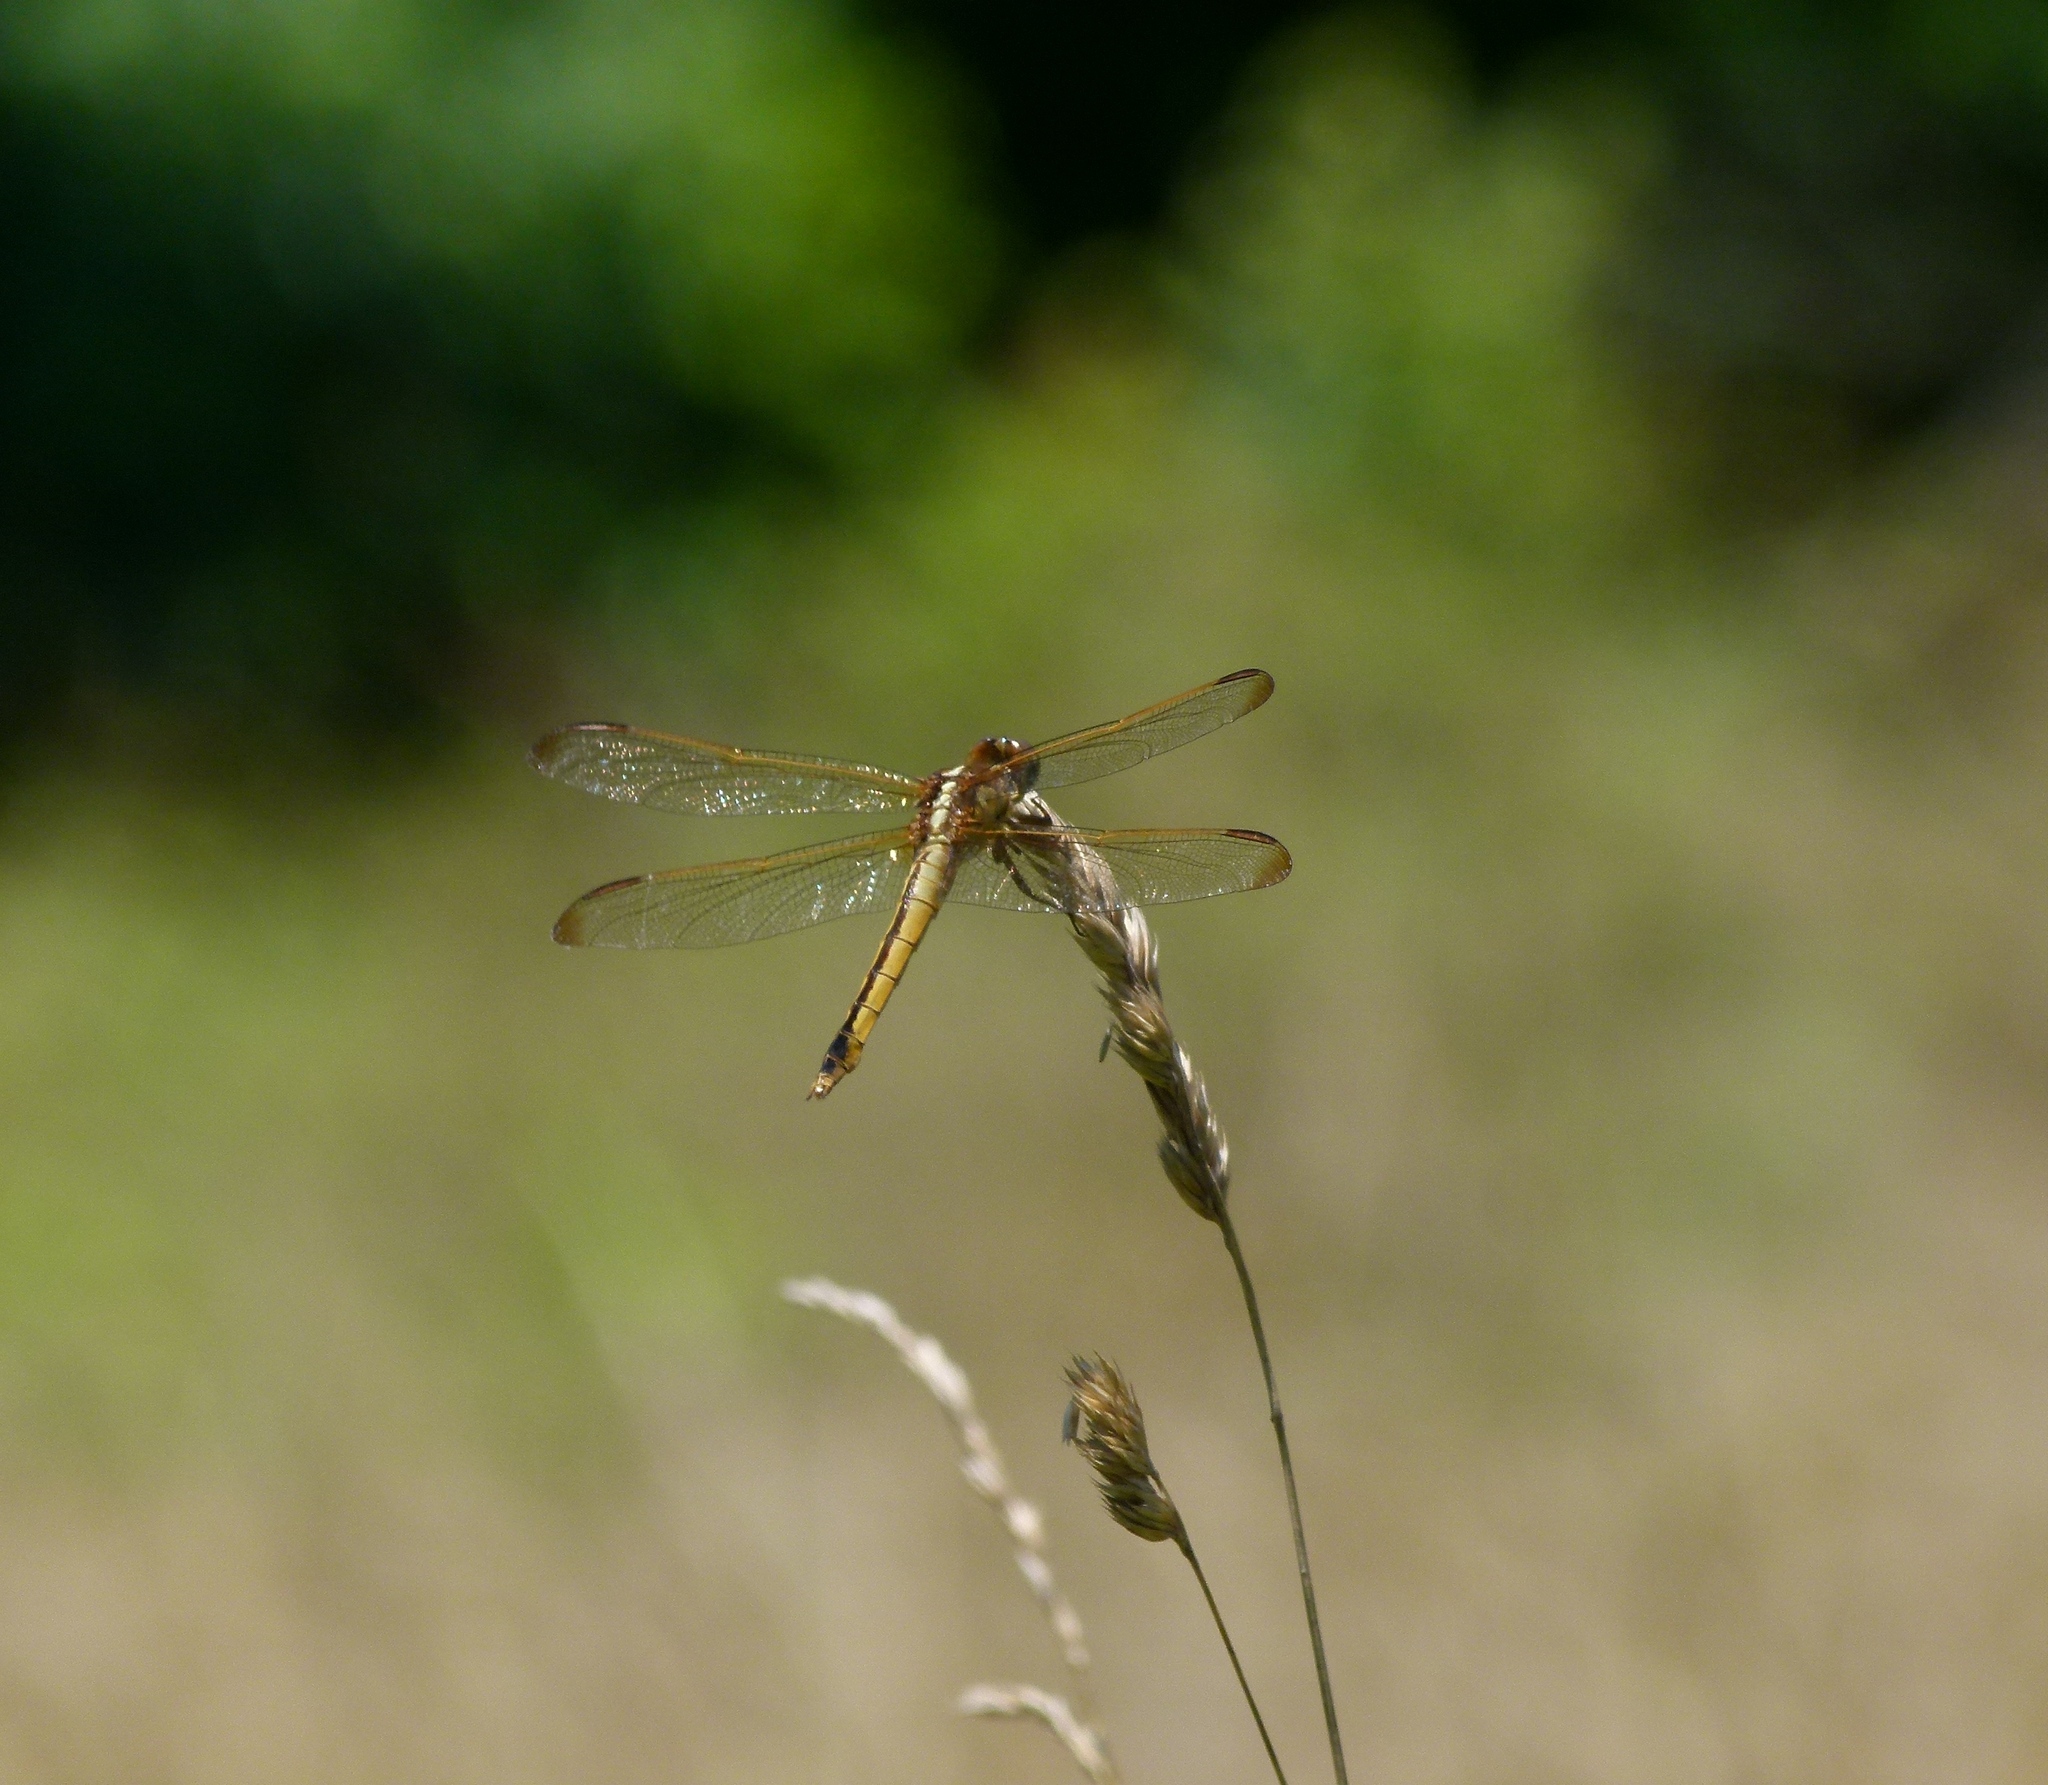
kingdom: Animalia
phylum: Arthropoda
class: Insecta
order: Odonata
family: Libellulidae
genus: Libellula
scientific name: Libellula needhami
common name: Needham's skimmer
